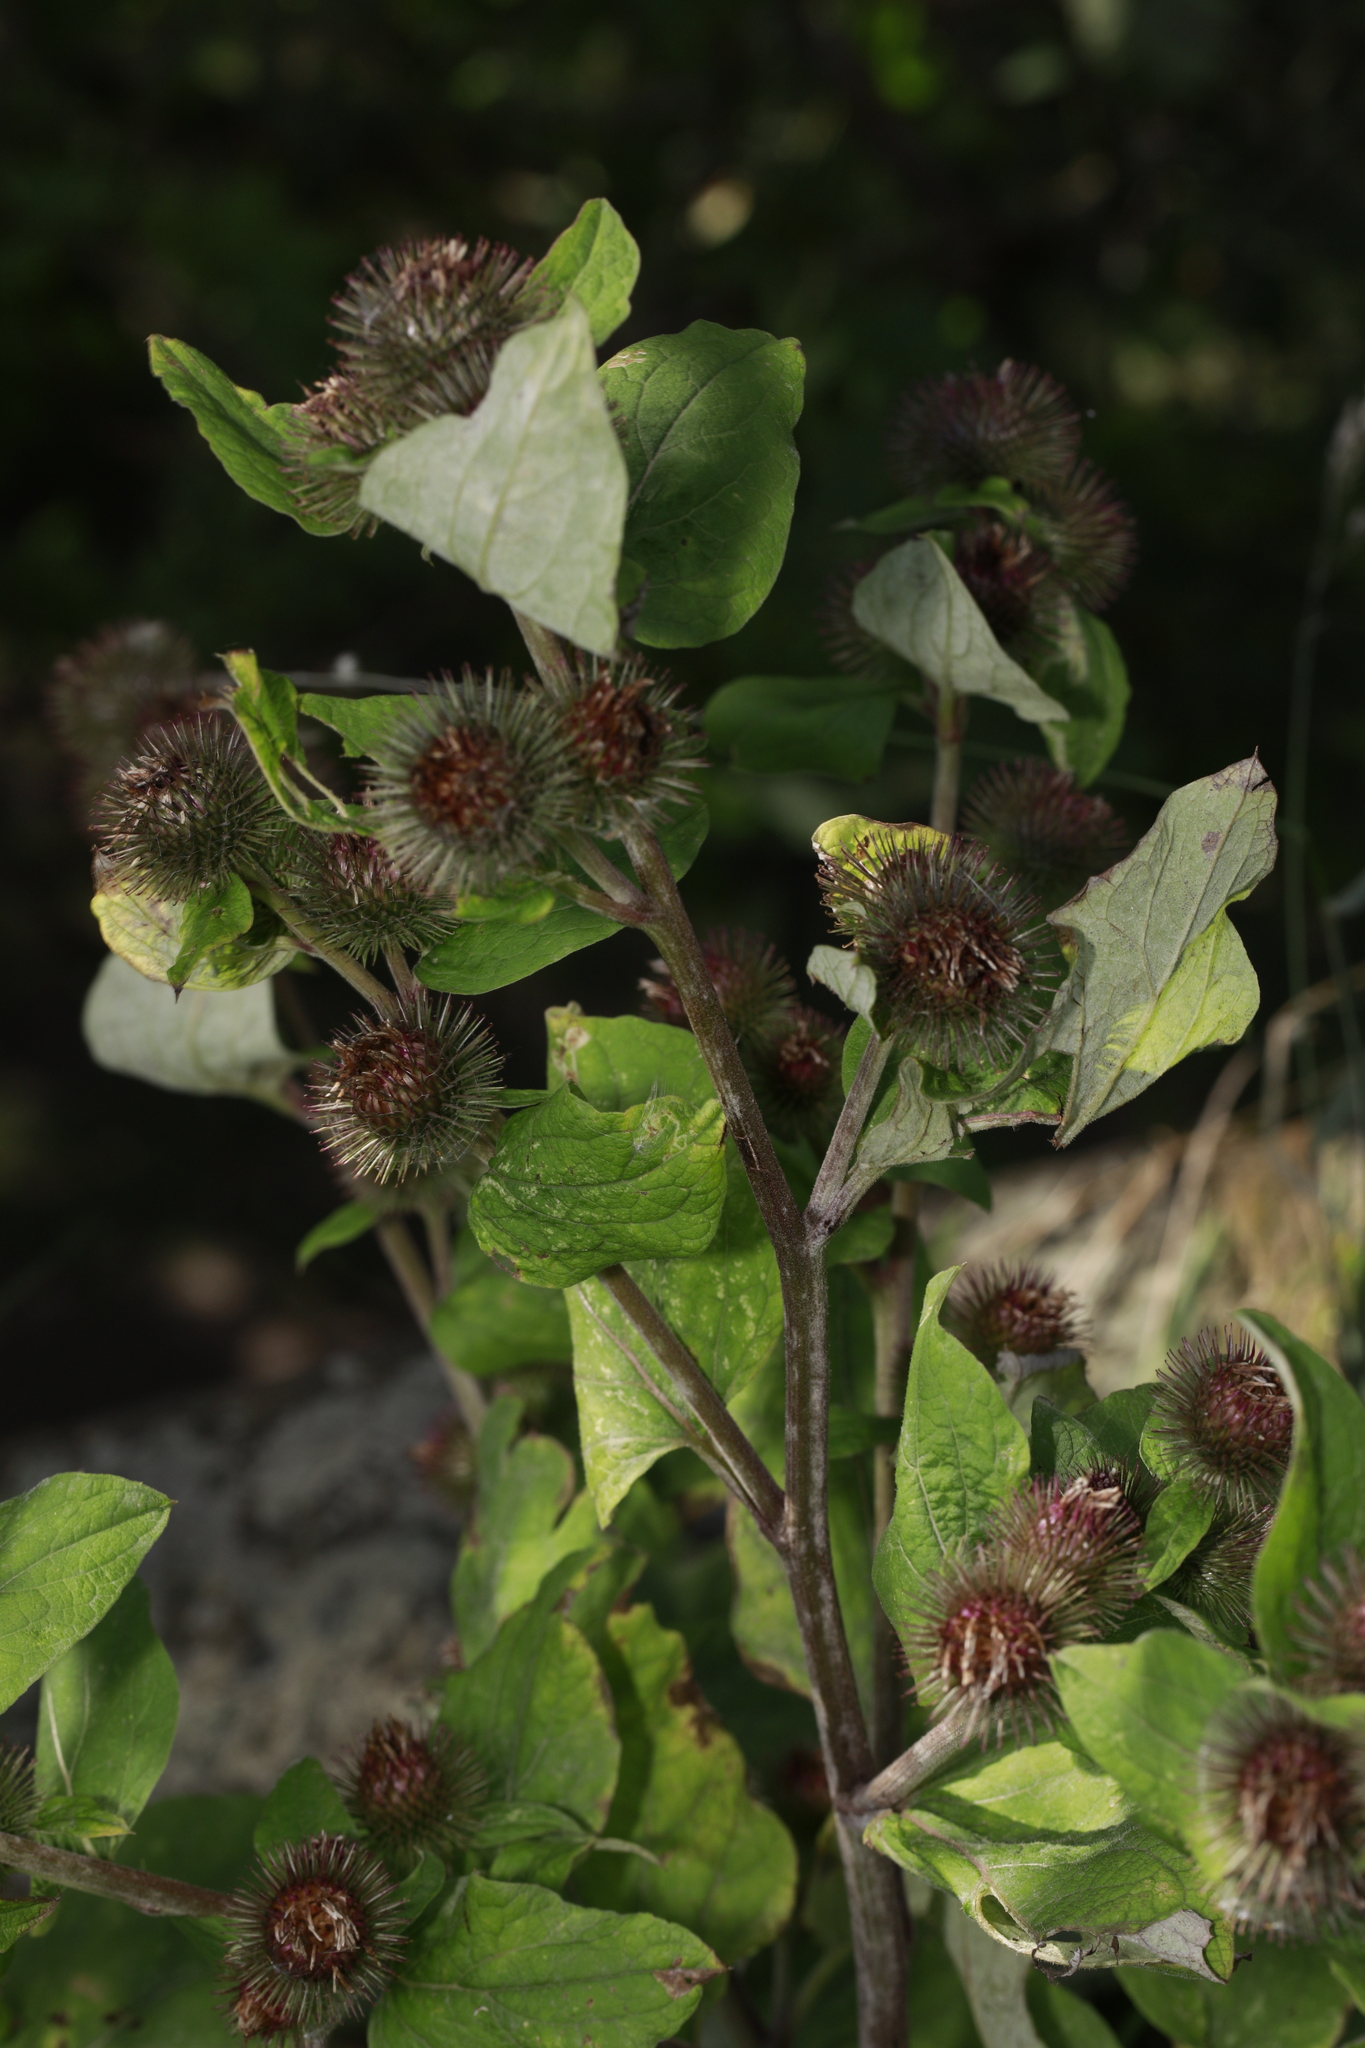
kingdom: Plantae
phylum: Tracheophyta
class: Magnoliopsida
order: Asterales
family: Asteraceae
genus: Arctium
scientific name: Arctium minus
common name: Lesser burdock
